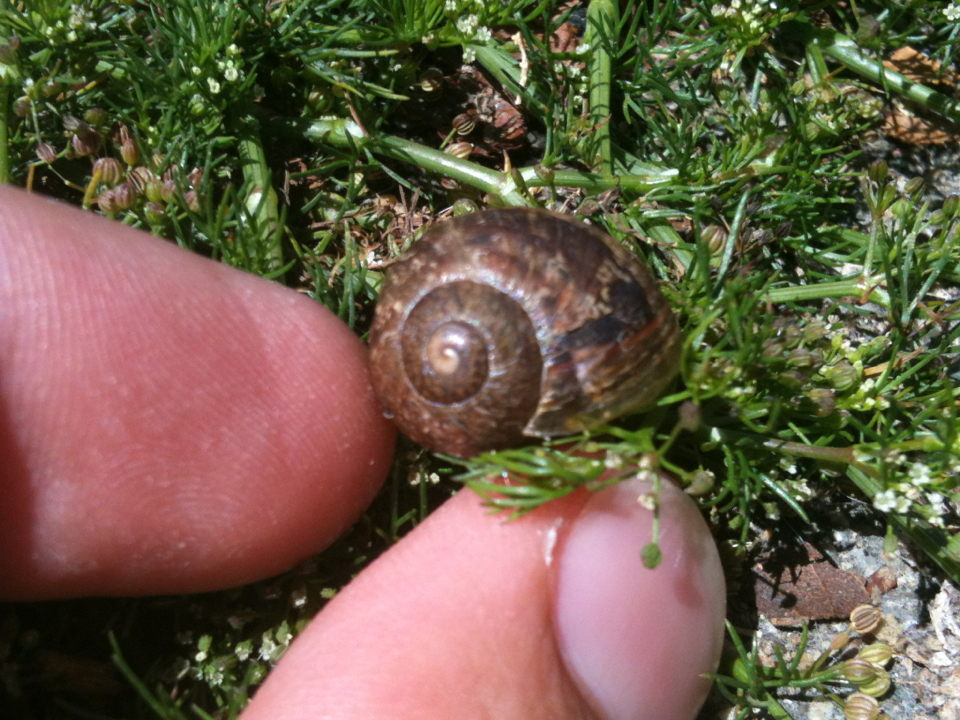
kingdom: Animalia
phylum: Mollusca
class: Gastropoda
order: Stylommatophora
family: Helicidae
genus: Cornu
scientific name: Cornu aspersum
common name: Brown garden snail
